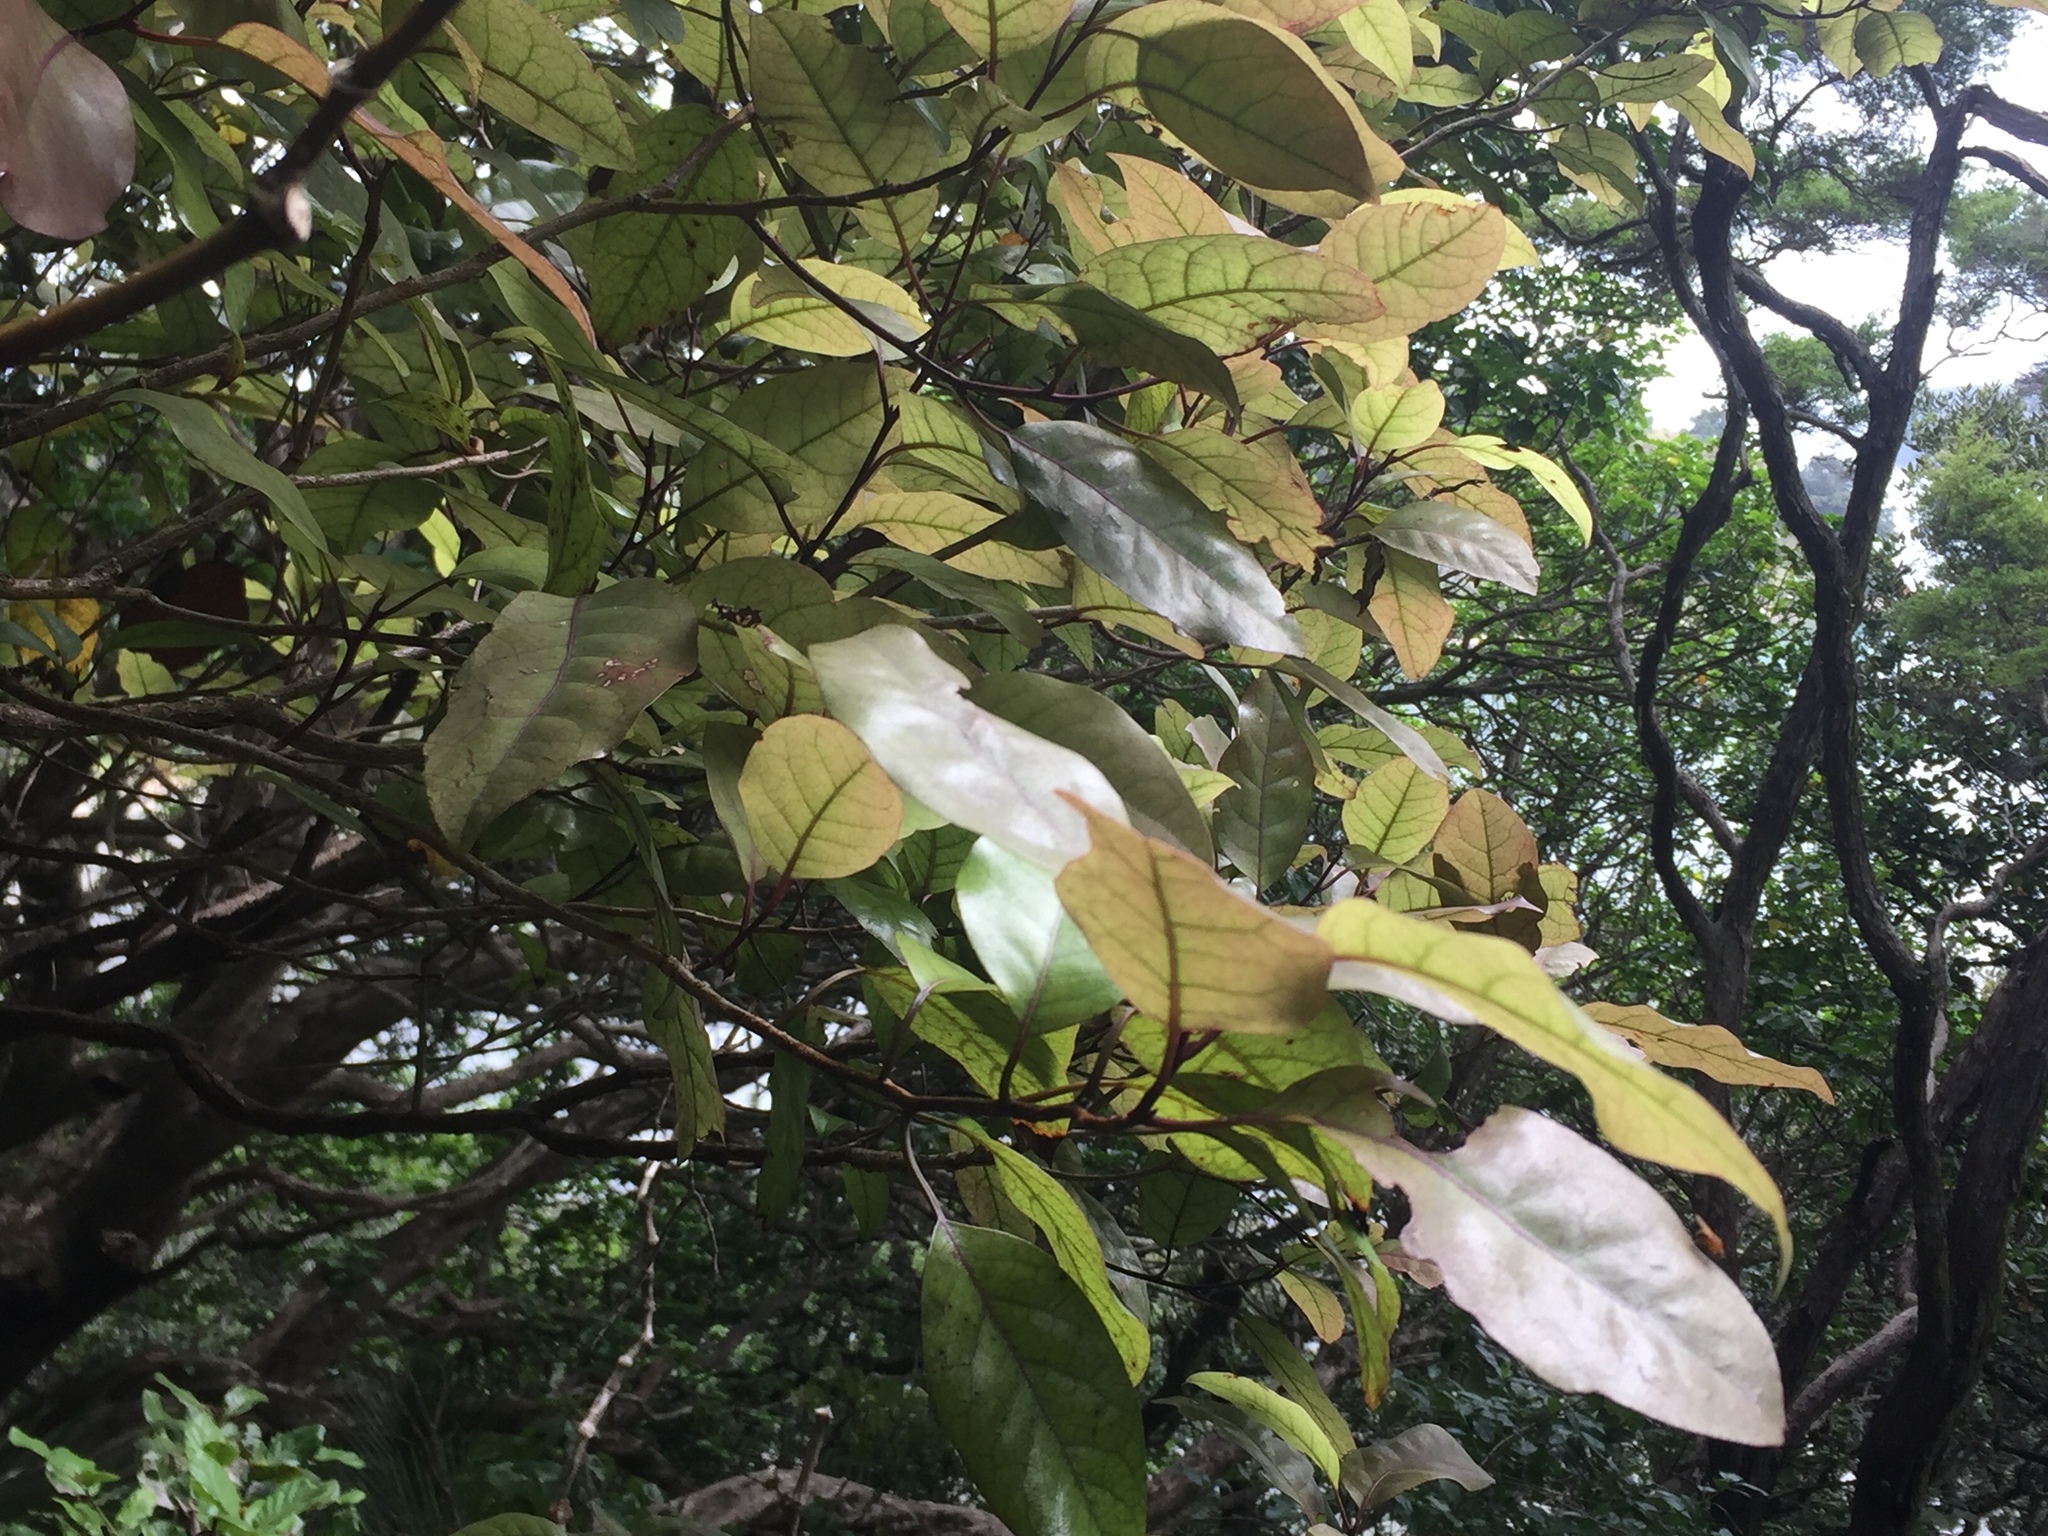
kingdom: Plantae
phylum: Tracheophyta
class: Magnoliopsida
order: Laurales
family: Lauraceae
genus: Litsea
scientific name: Litsea calicaris
